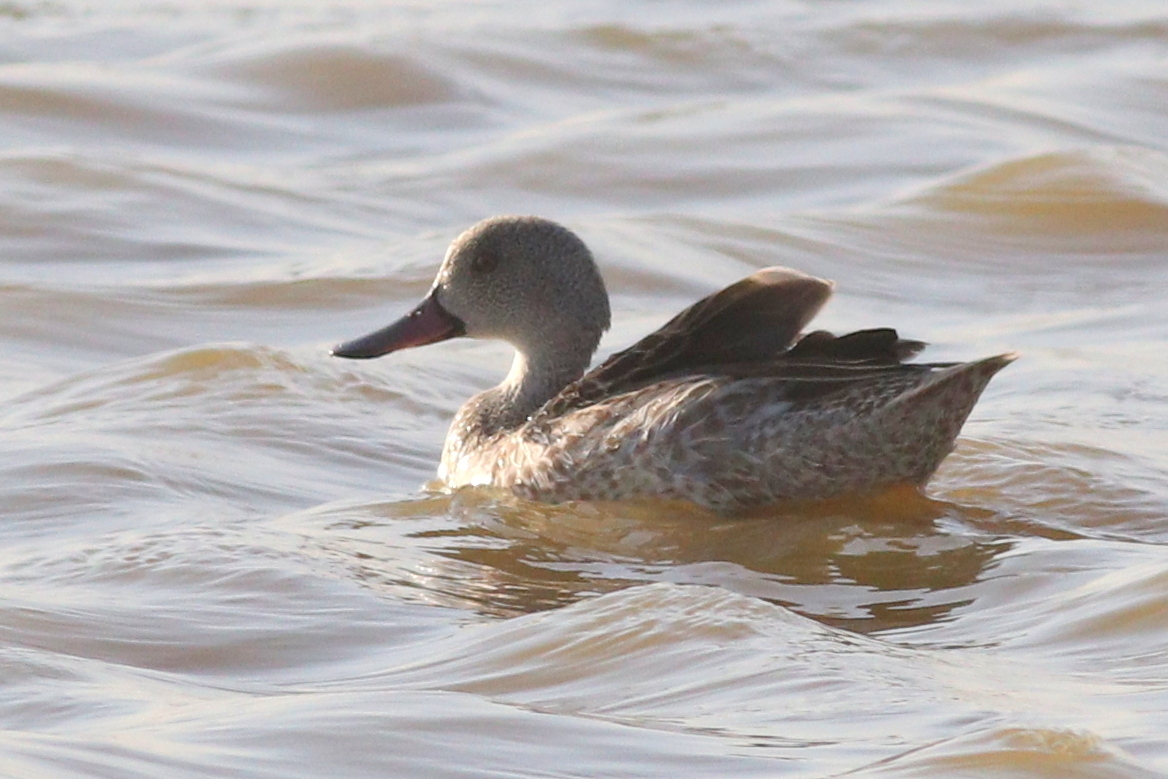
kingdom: Animalia
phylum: Chordata
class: Aves
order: Anseriformes
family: Anatidae
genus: Anas
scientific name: Anas capensis
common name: Cape teal
